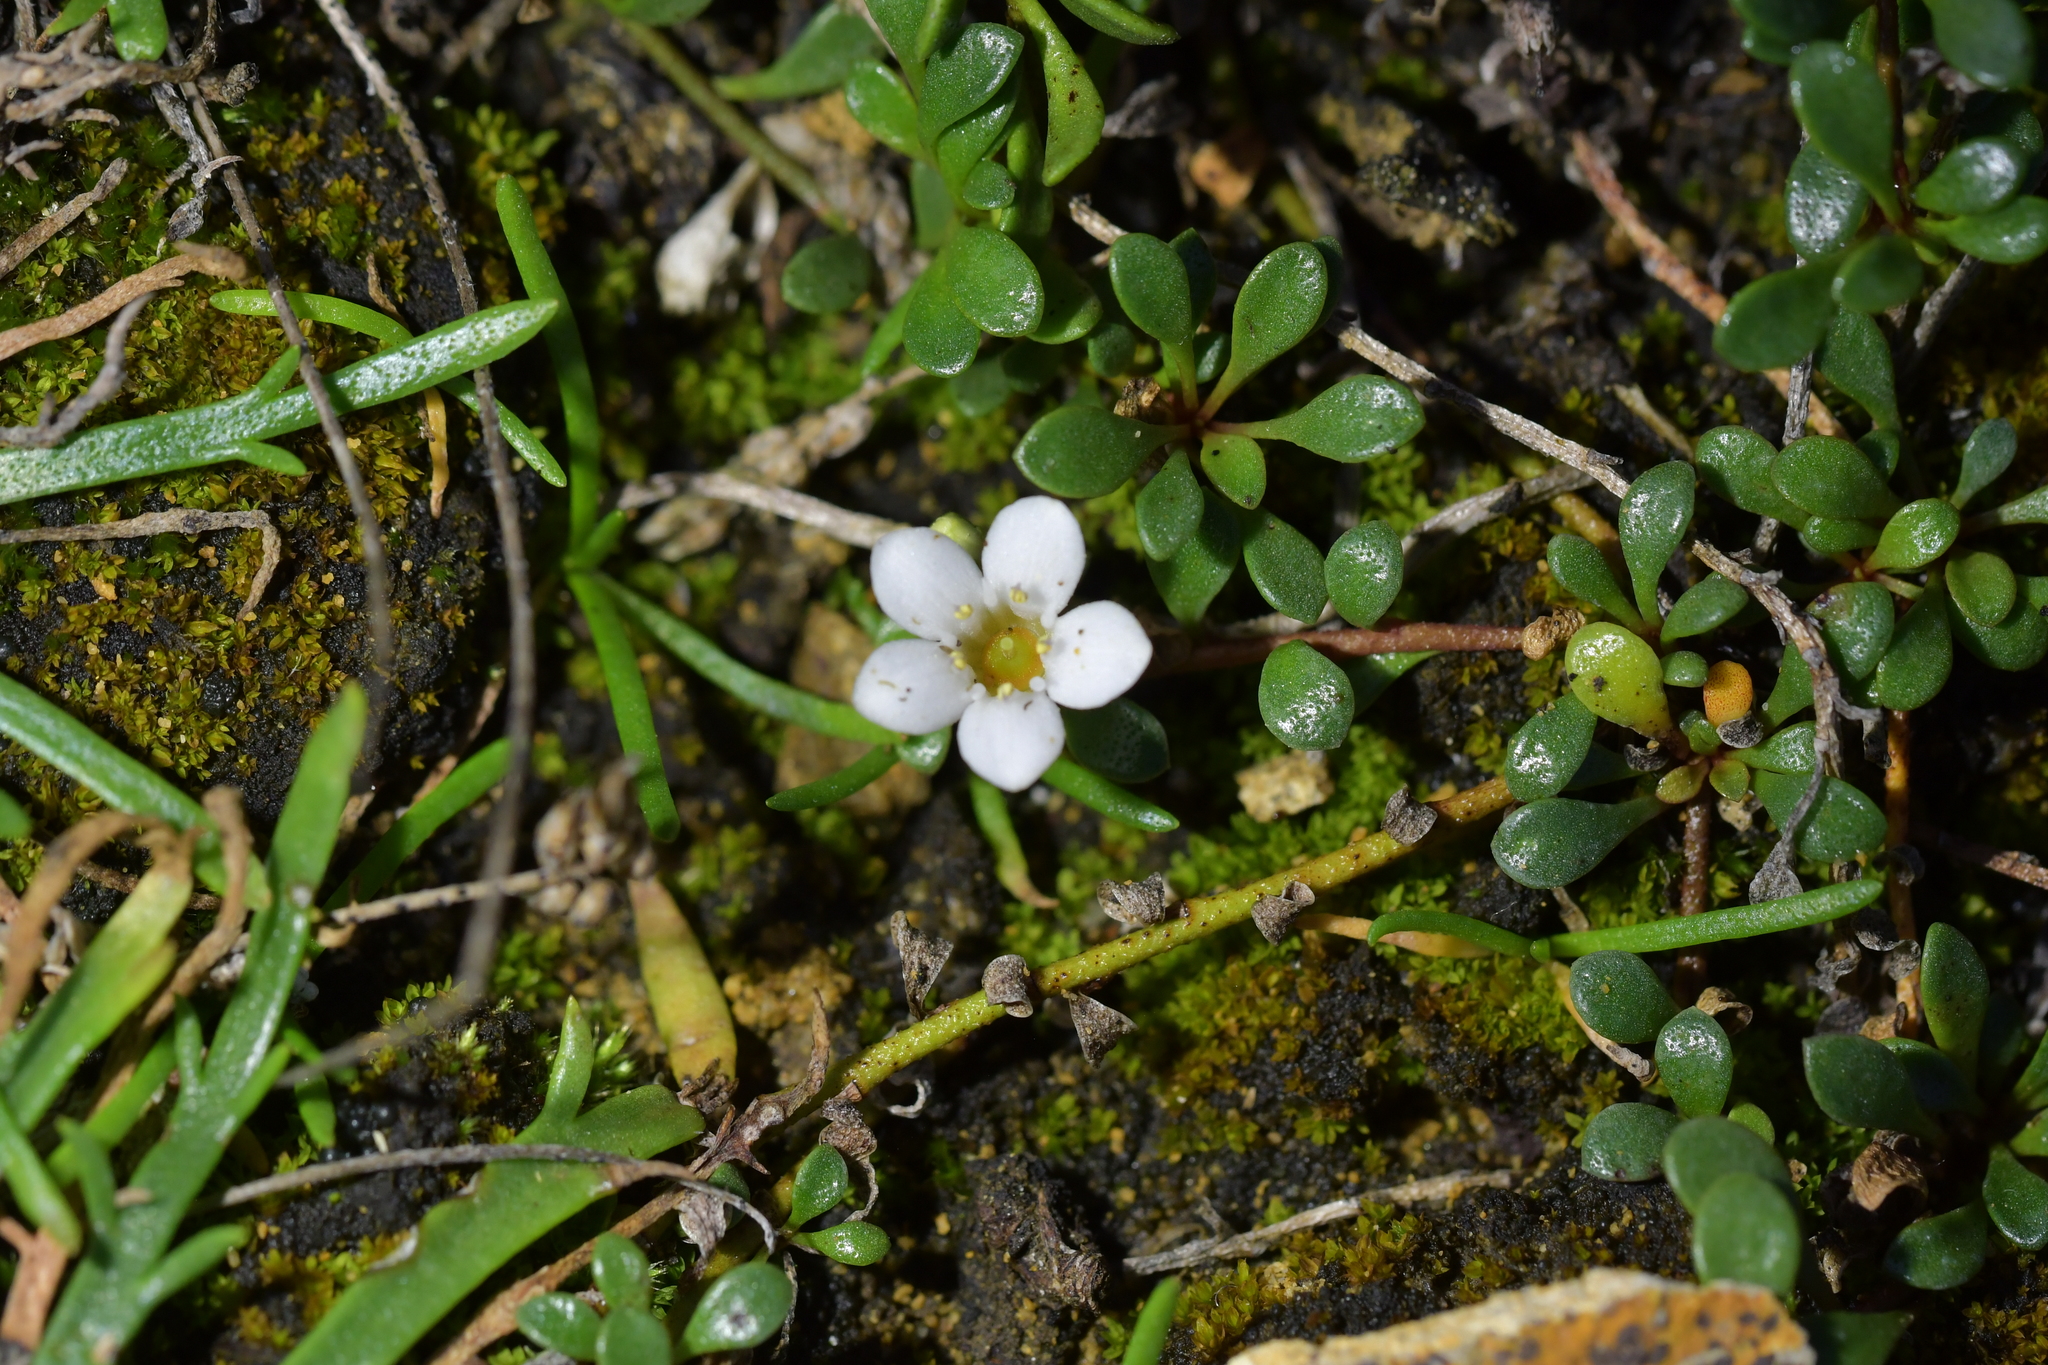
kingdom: Plantae
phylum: Tracheophyta
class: Magnoliopsida
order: Ericales
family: Primulaceae
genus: Samolus
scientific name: Samolus repens
